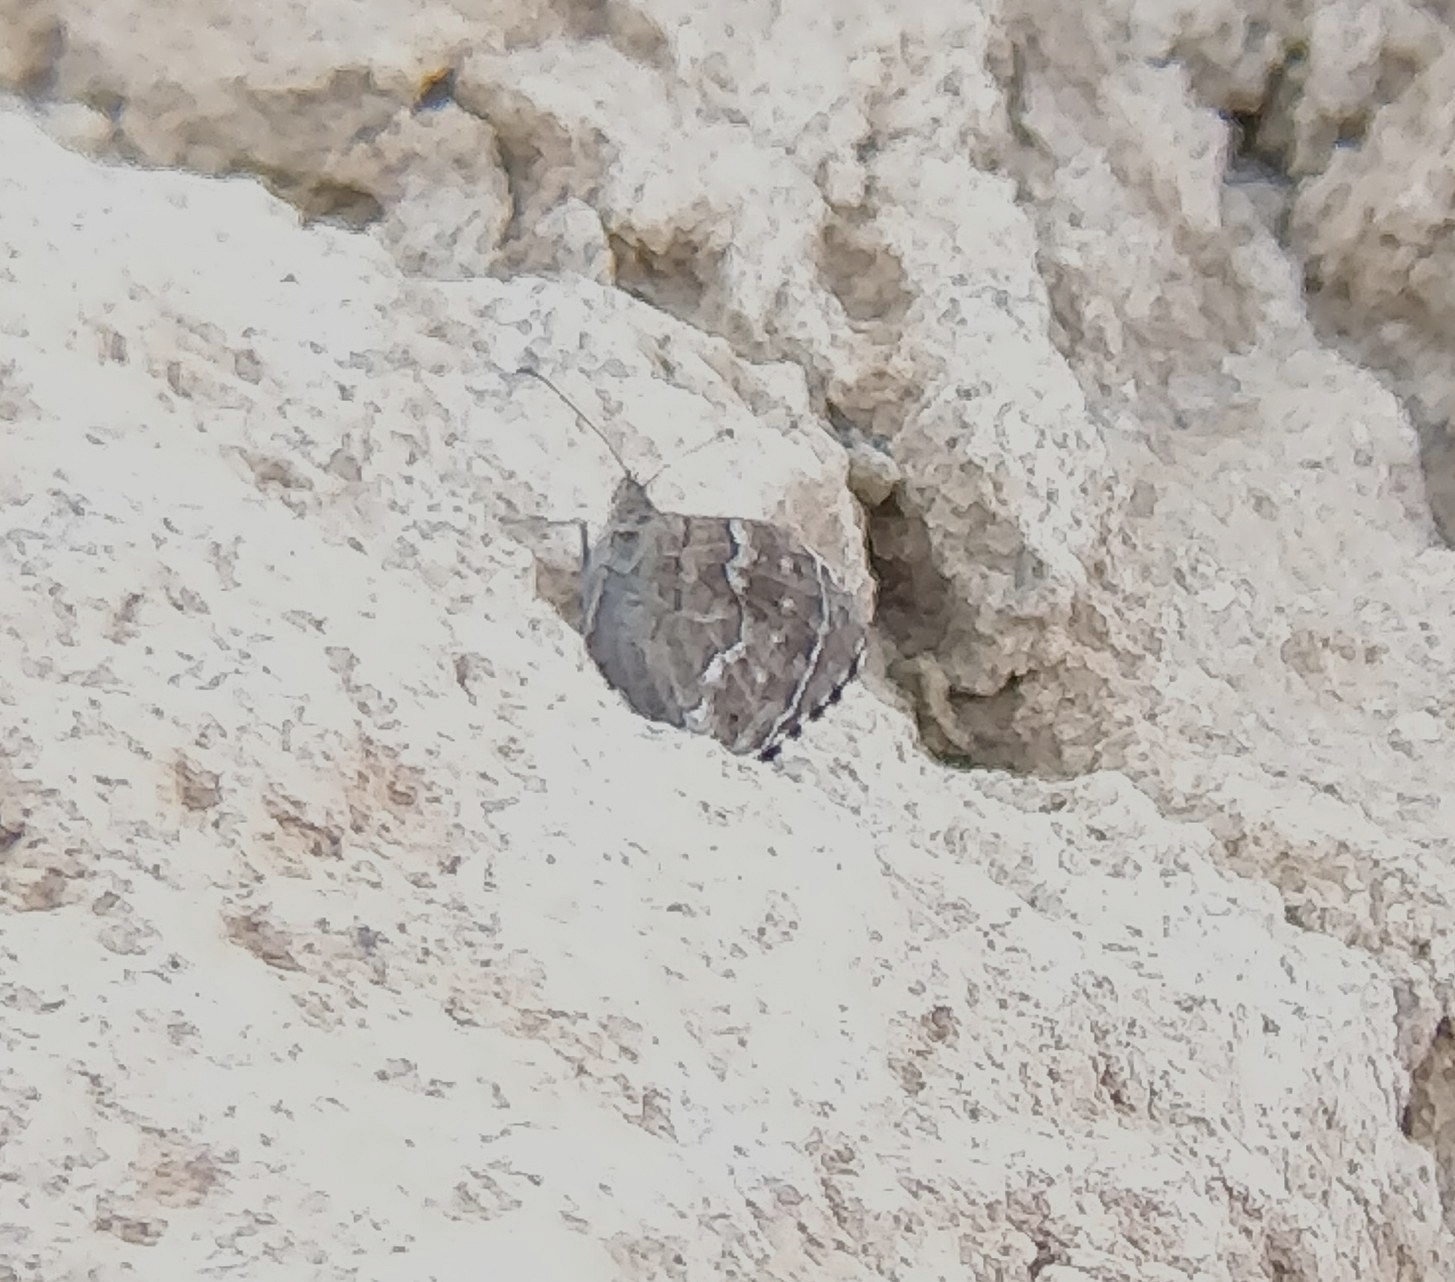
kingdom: Animalia
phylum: Arthropoda
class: Insecta
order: Lepidoptera
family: Nymphalidae
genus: Hipparchia
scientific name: Hipparchia wyssii
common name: Canary grayling
